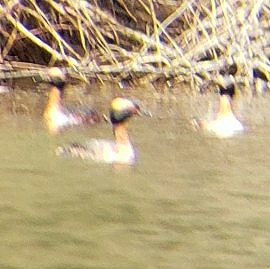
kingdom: Animalia
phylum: Chordata
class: Aves
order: Podicipediformes
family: Podicipedidae
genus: Podiceps
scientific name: Podiceps auritus
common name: Horned grebe
